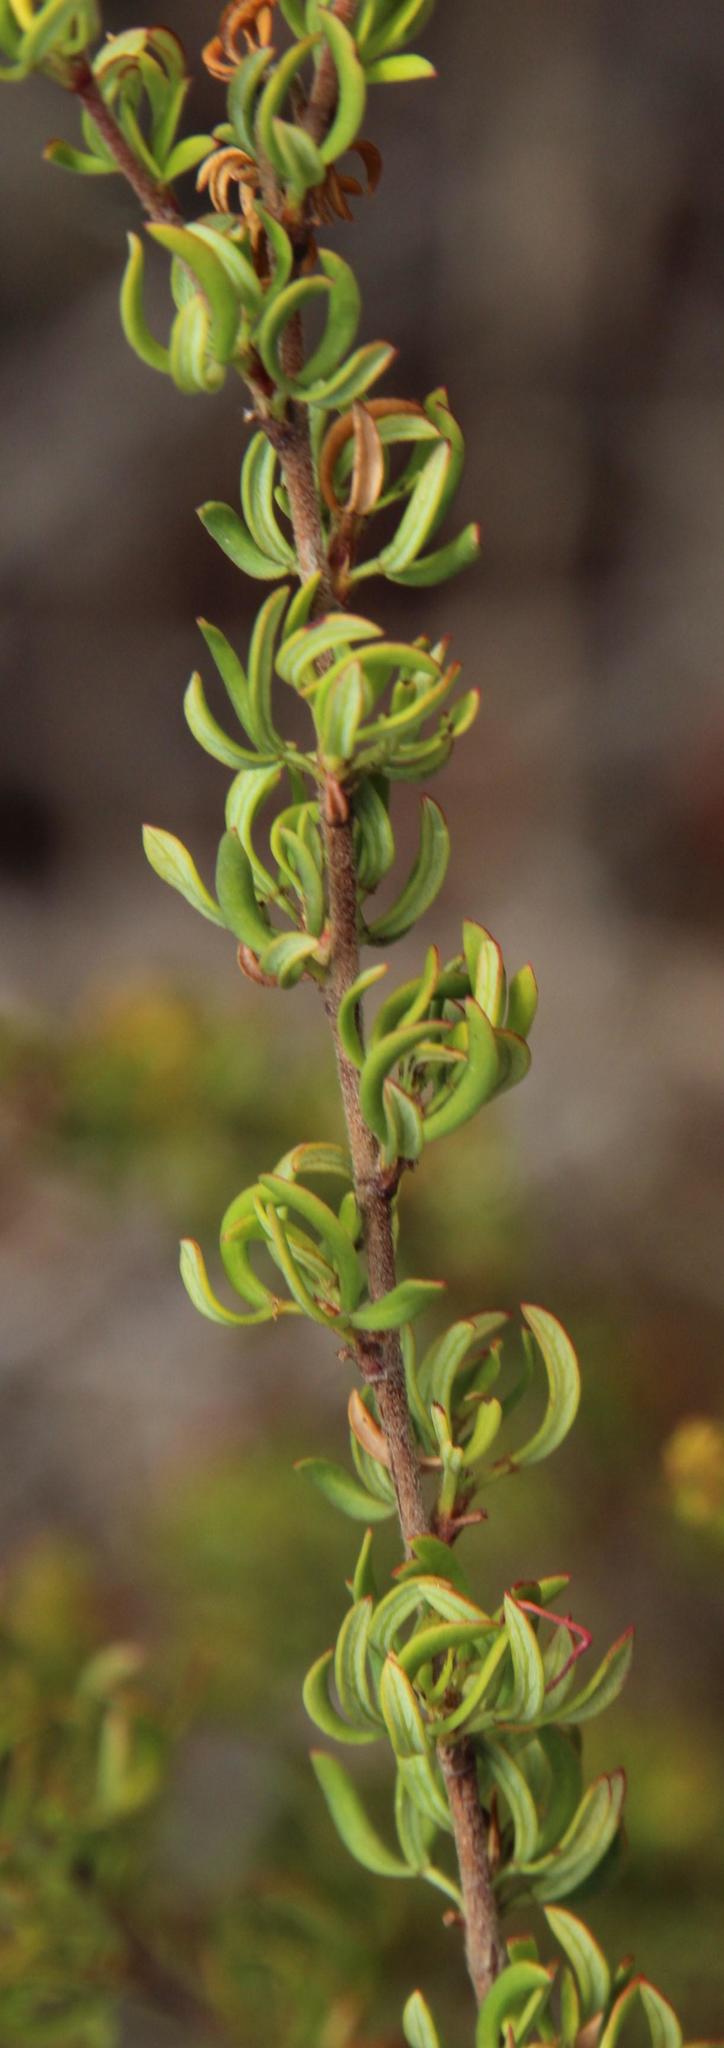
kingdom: Plantae
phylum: Tracheophyta
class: Magnoliopsida
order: Rosales
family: Rosaceae
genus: Cliffortia
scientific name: Cliffortia falcata
